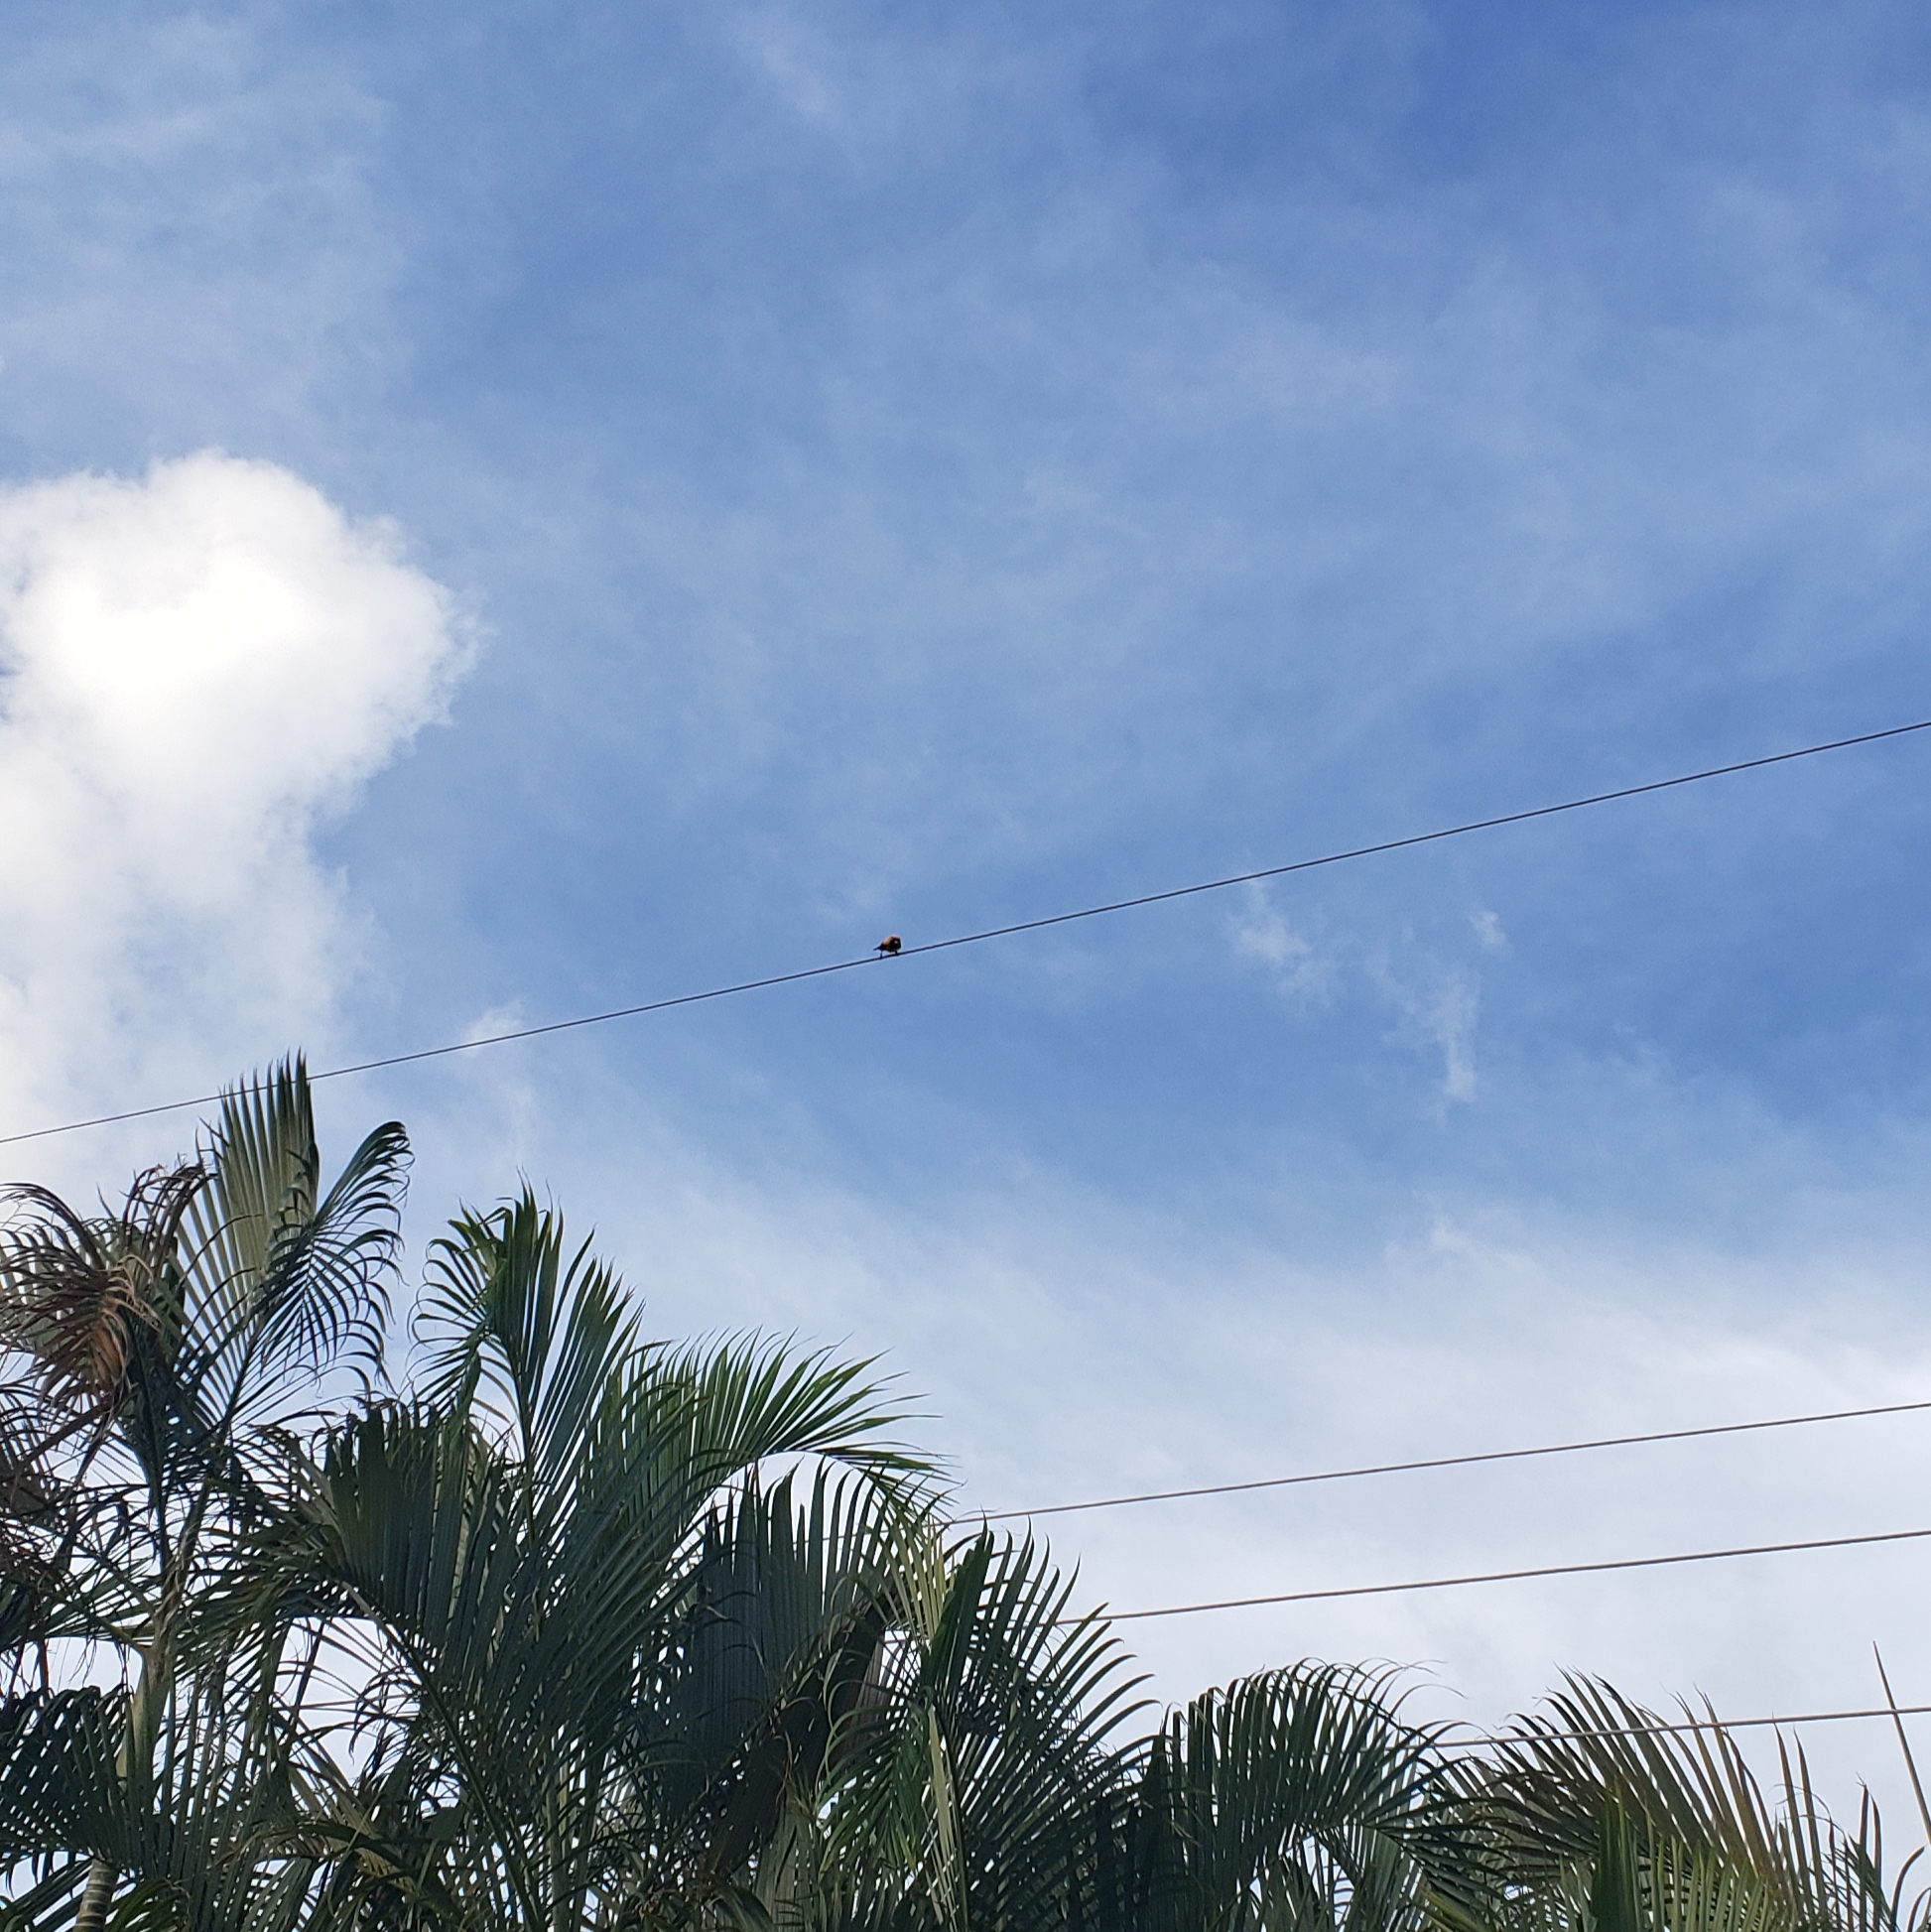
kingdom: Animalia
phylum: Chordata
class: Aves
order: Passeriformes
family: Icteridae
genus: Icterus
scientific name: Icterus pectoralis
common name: Spot-breasted oriole
